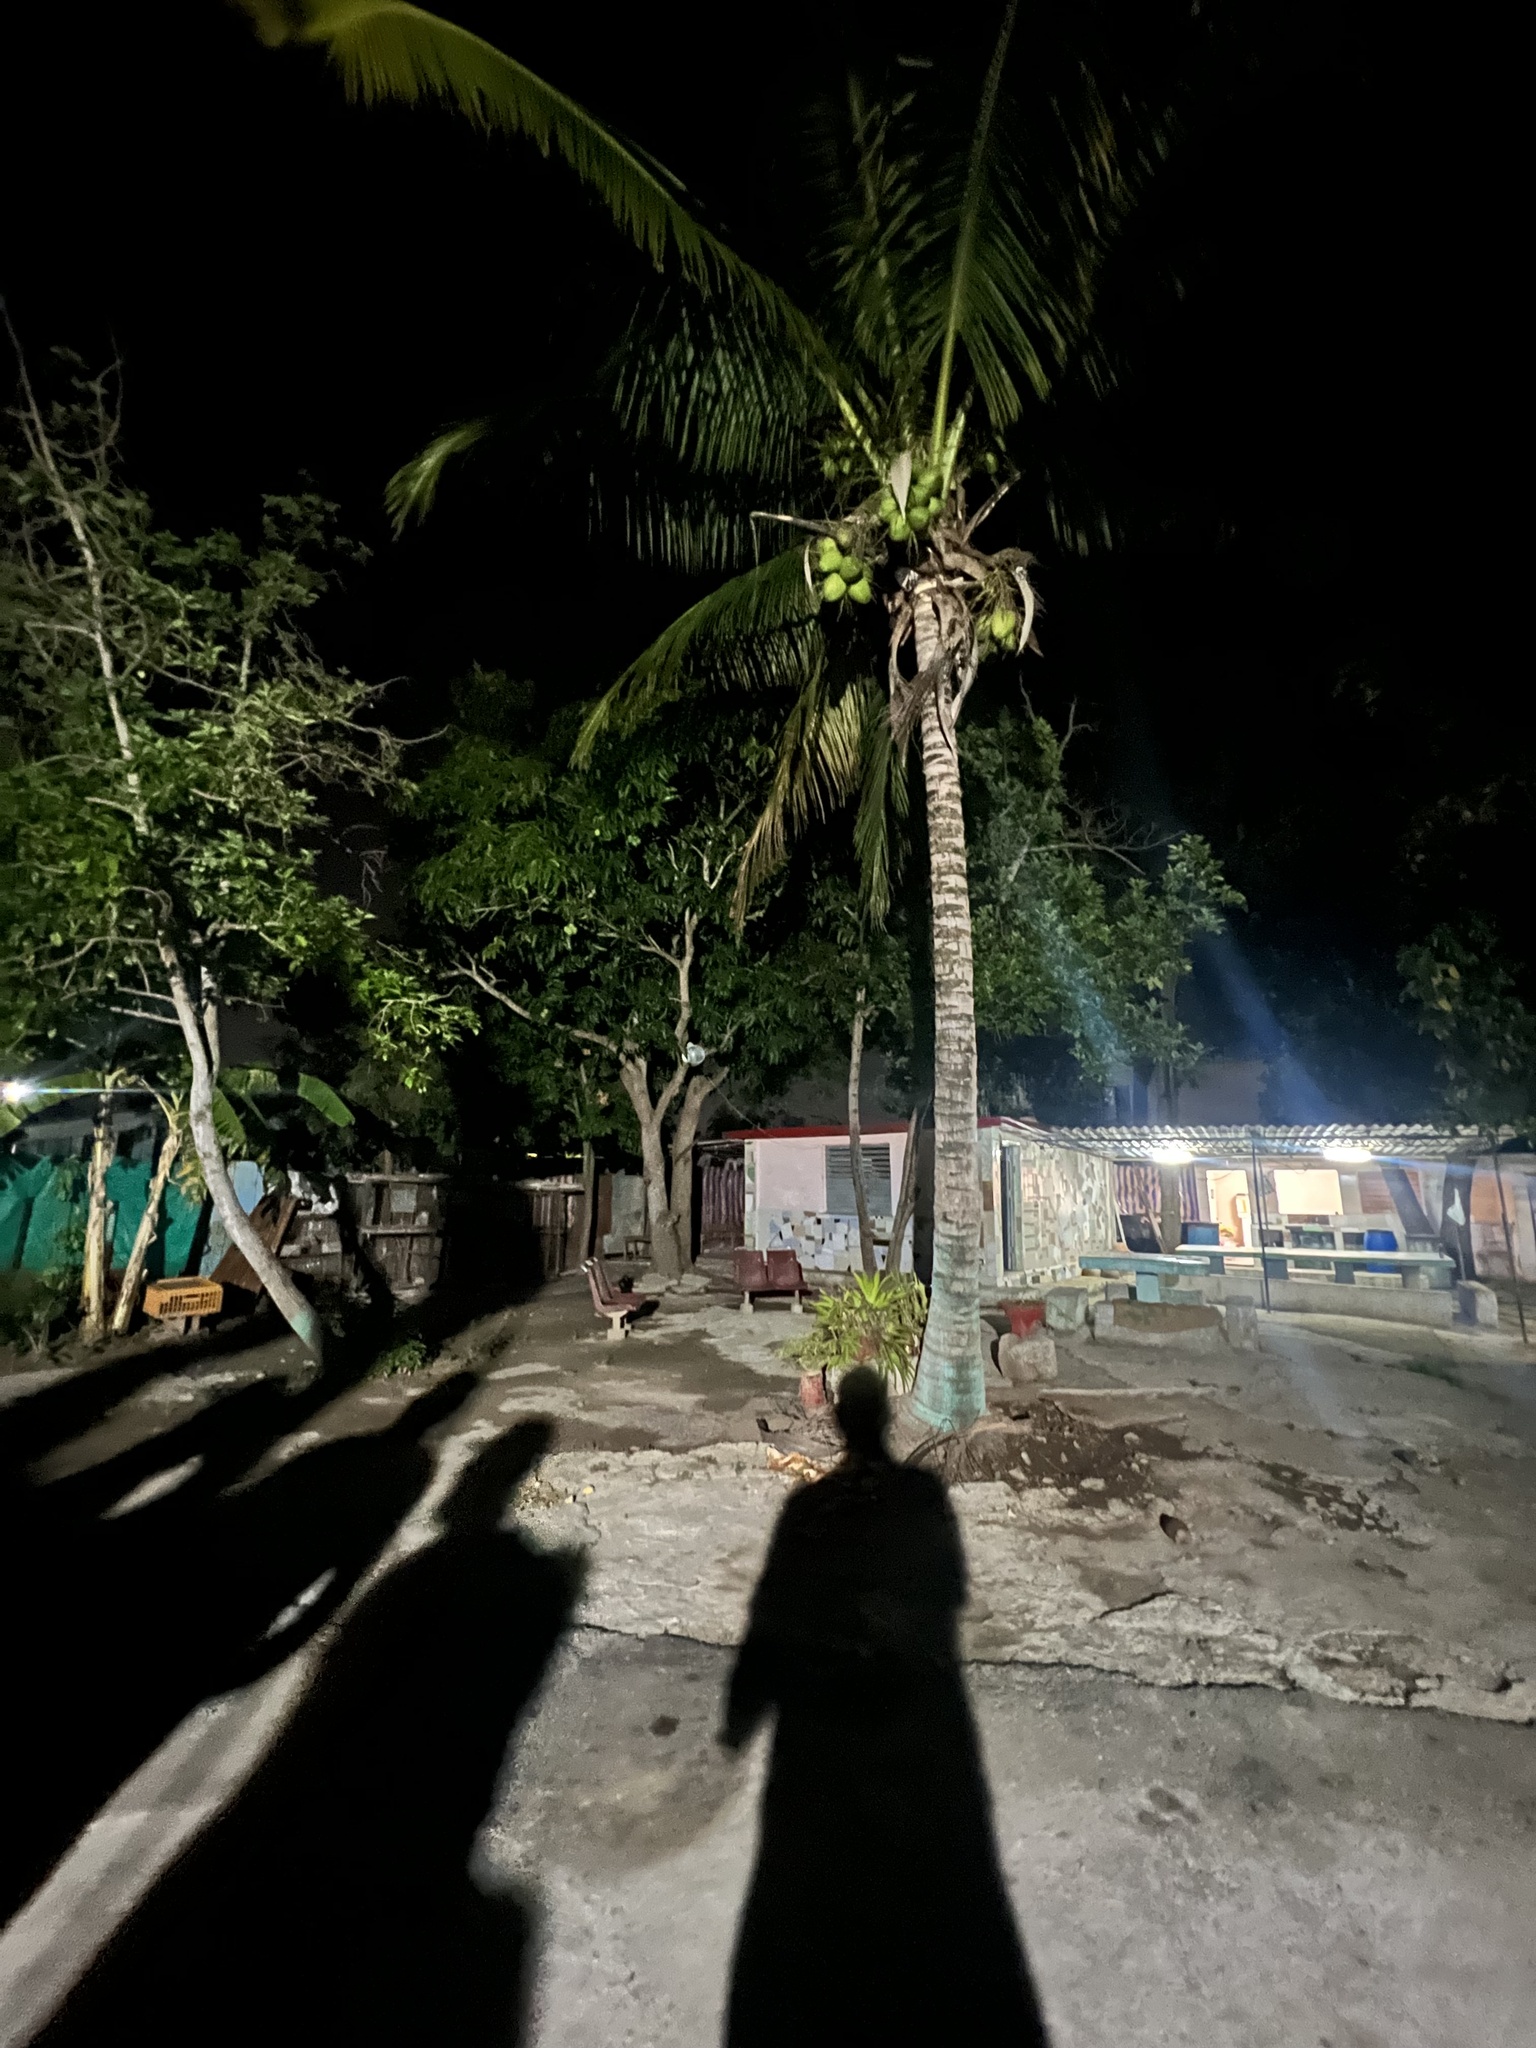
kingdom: Plantae
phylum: Tracheophyta
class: Liliopsida
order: Arecales
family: Arecaceae
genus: Cocos
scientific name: Cocos nucifera
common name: Coconut palm
